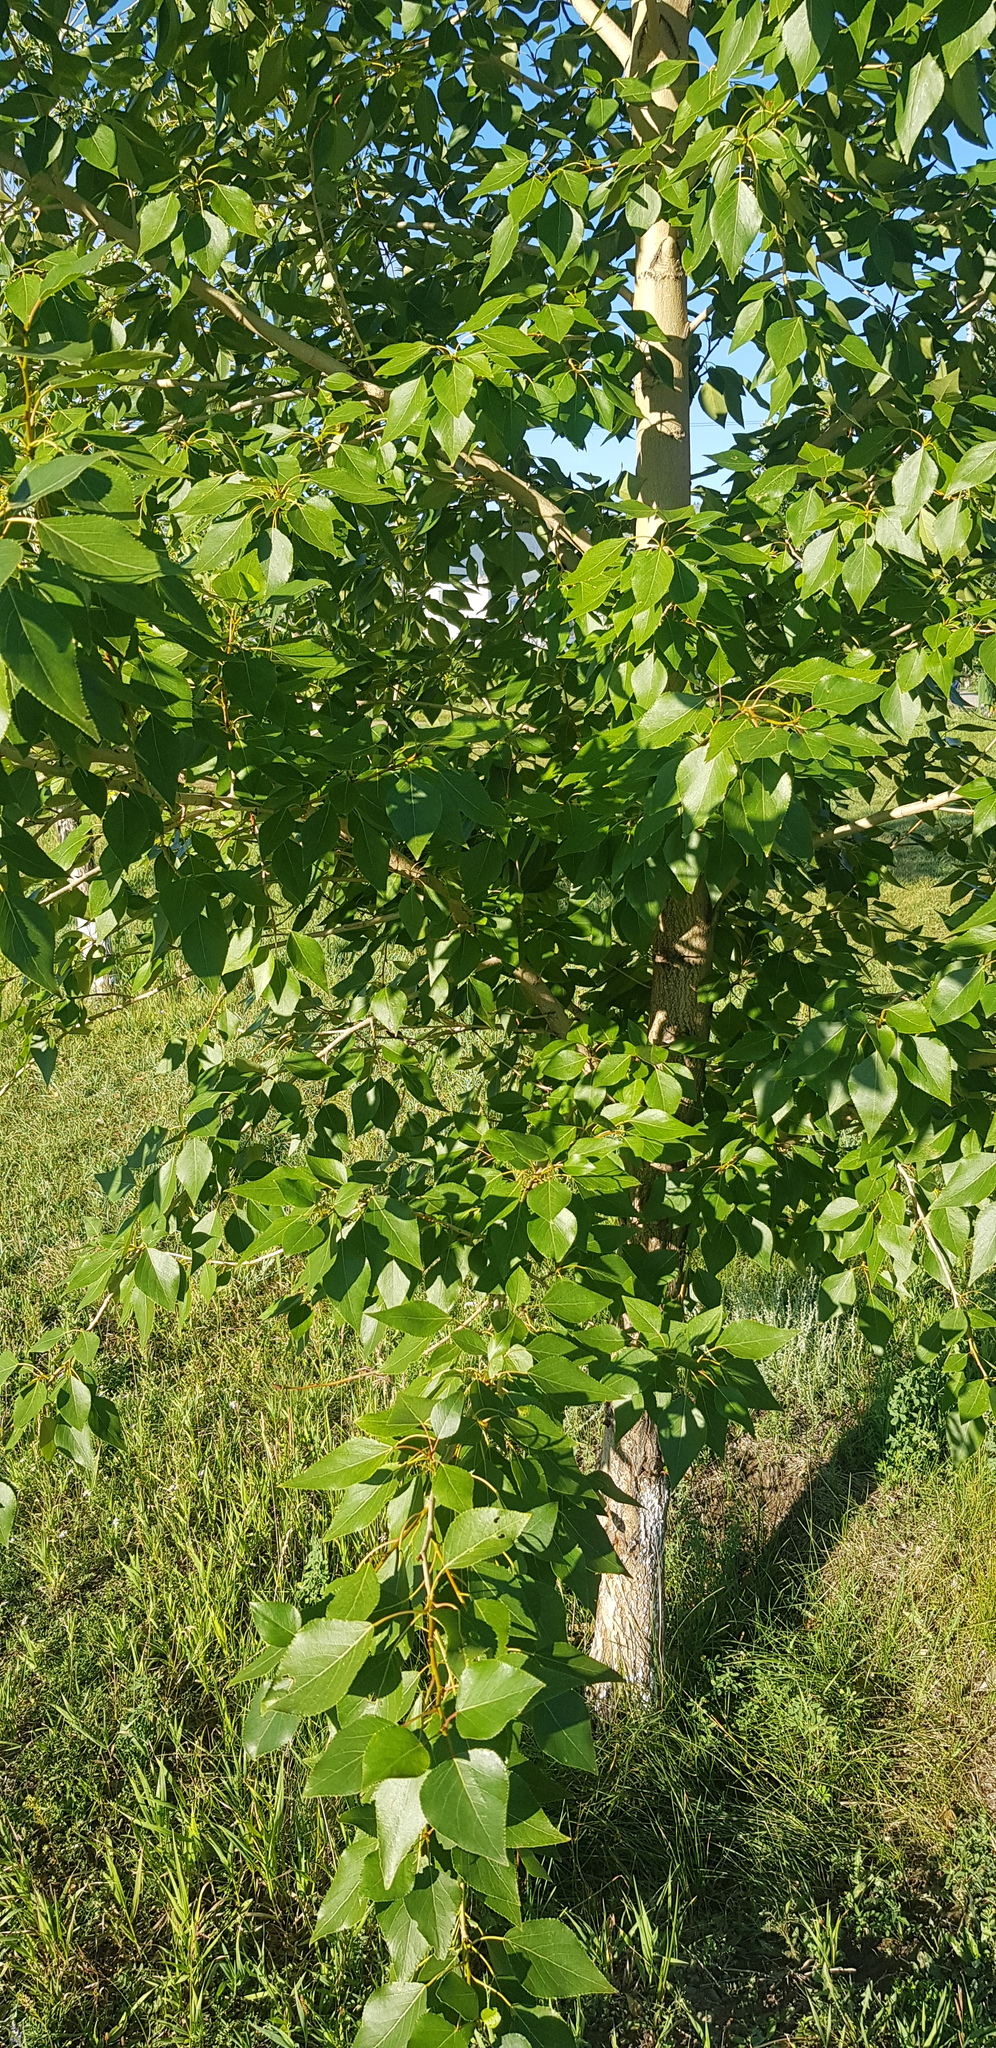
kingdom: Plantae
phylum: Tracheophyta
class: Magnoliopsida
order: Malpighiales
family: Salicaceae
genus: Populus
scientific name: Populus tremula
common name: European aspen
